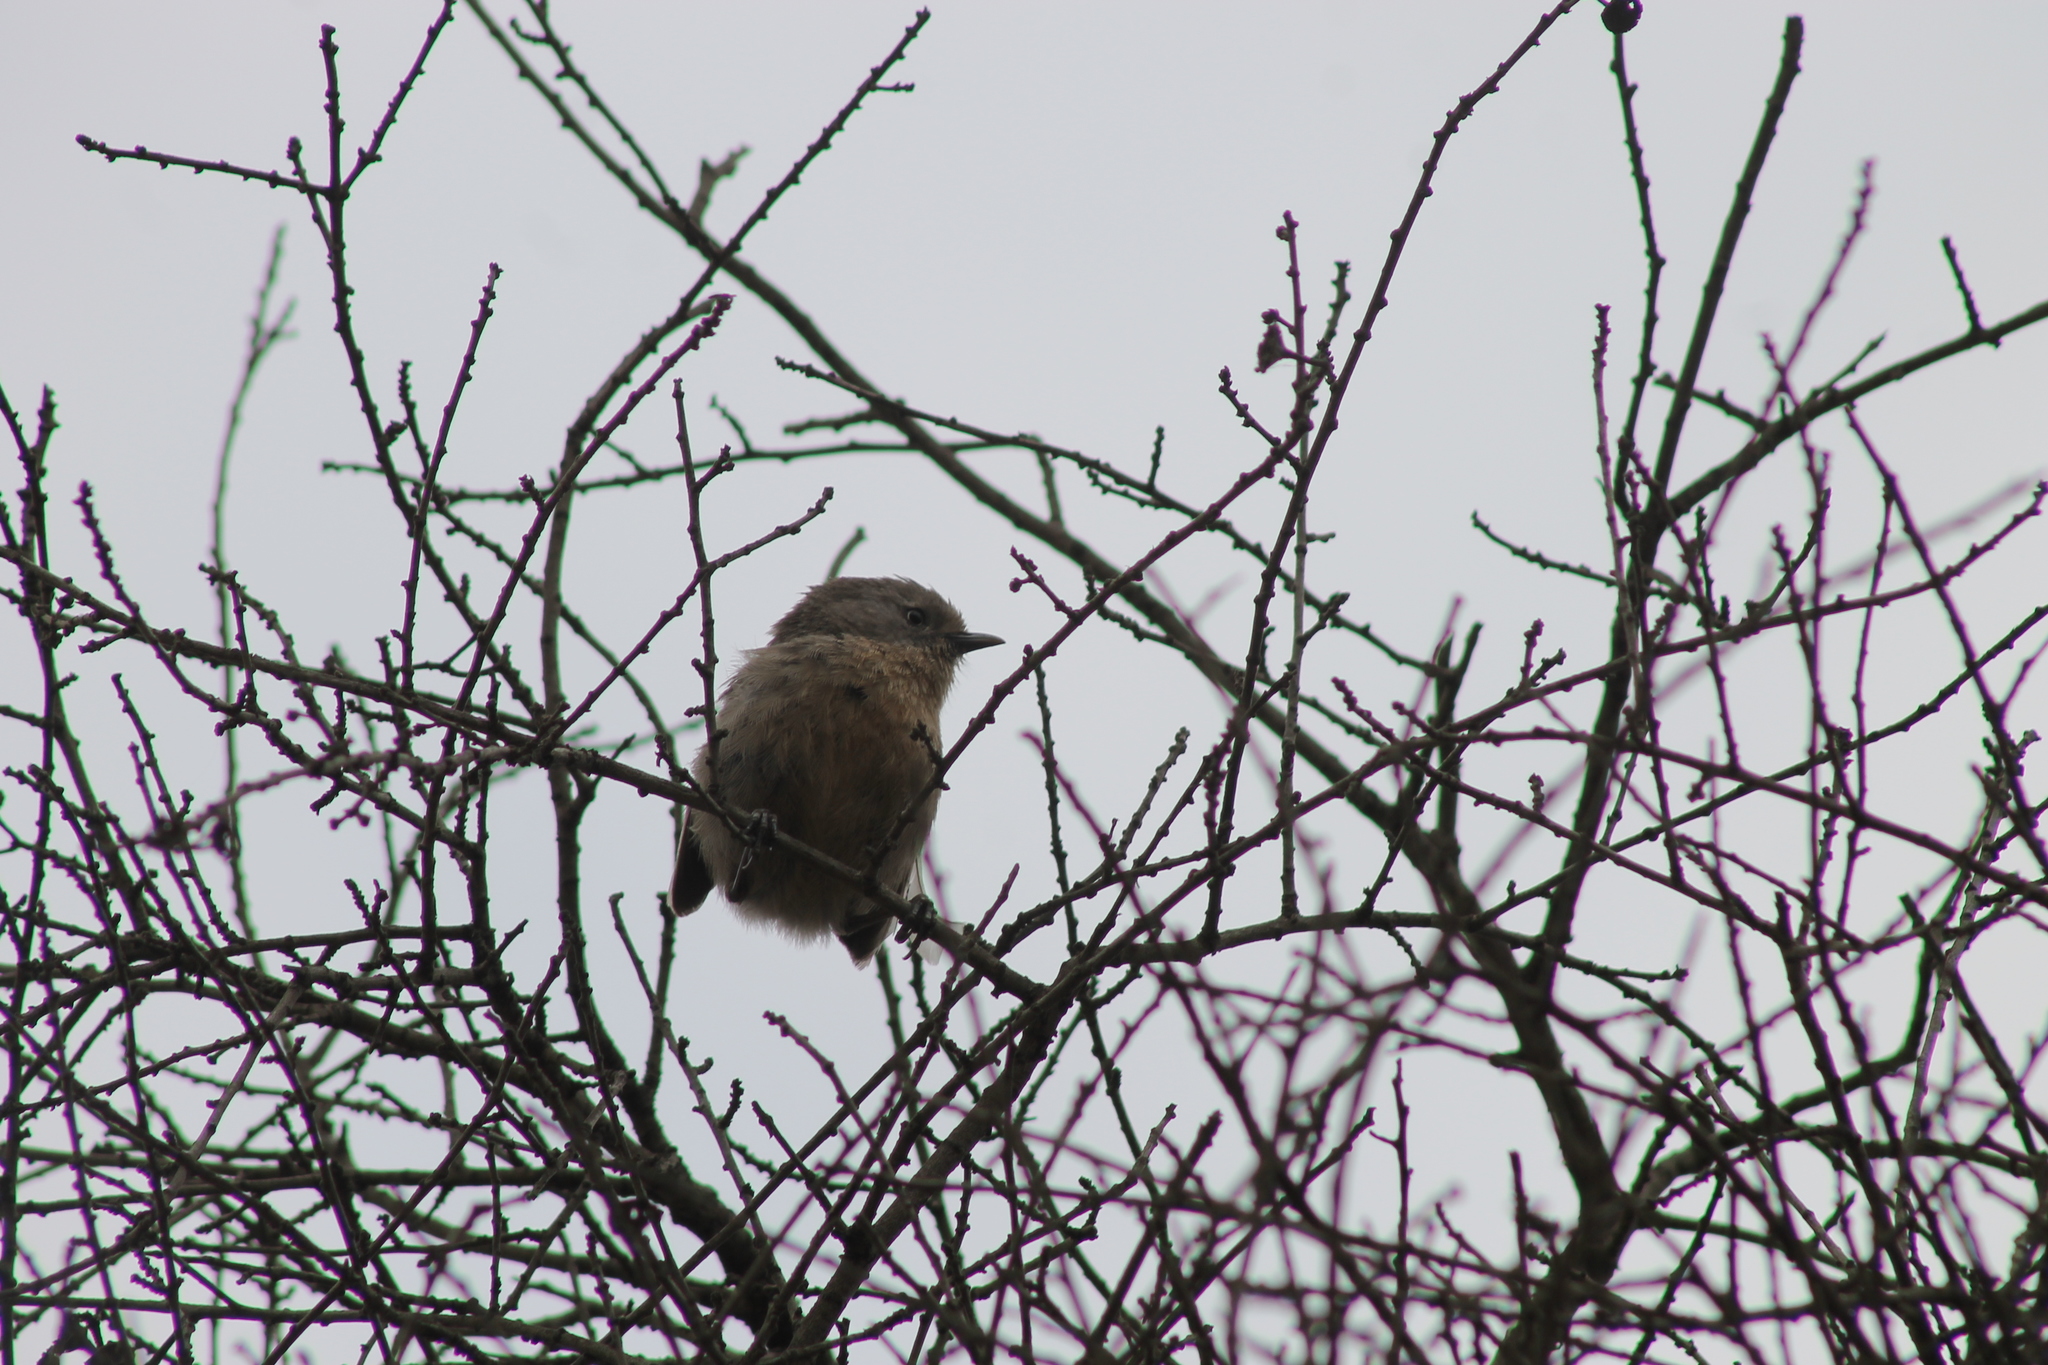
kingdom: Animalia
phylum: Chordata
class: Aves
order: Passeriformes
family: Aegithalidae
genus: Psaltriparus
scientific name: Psaltriparus minimus
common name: American bushtit
